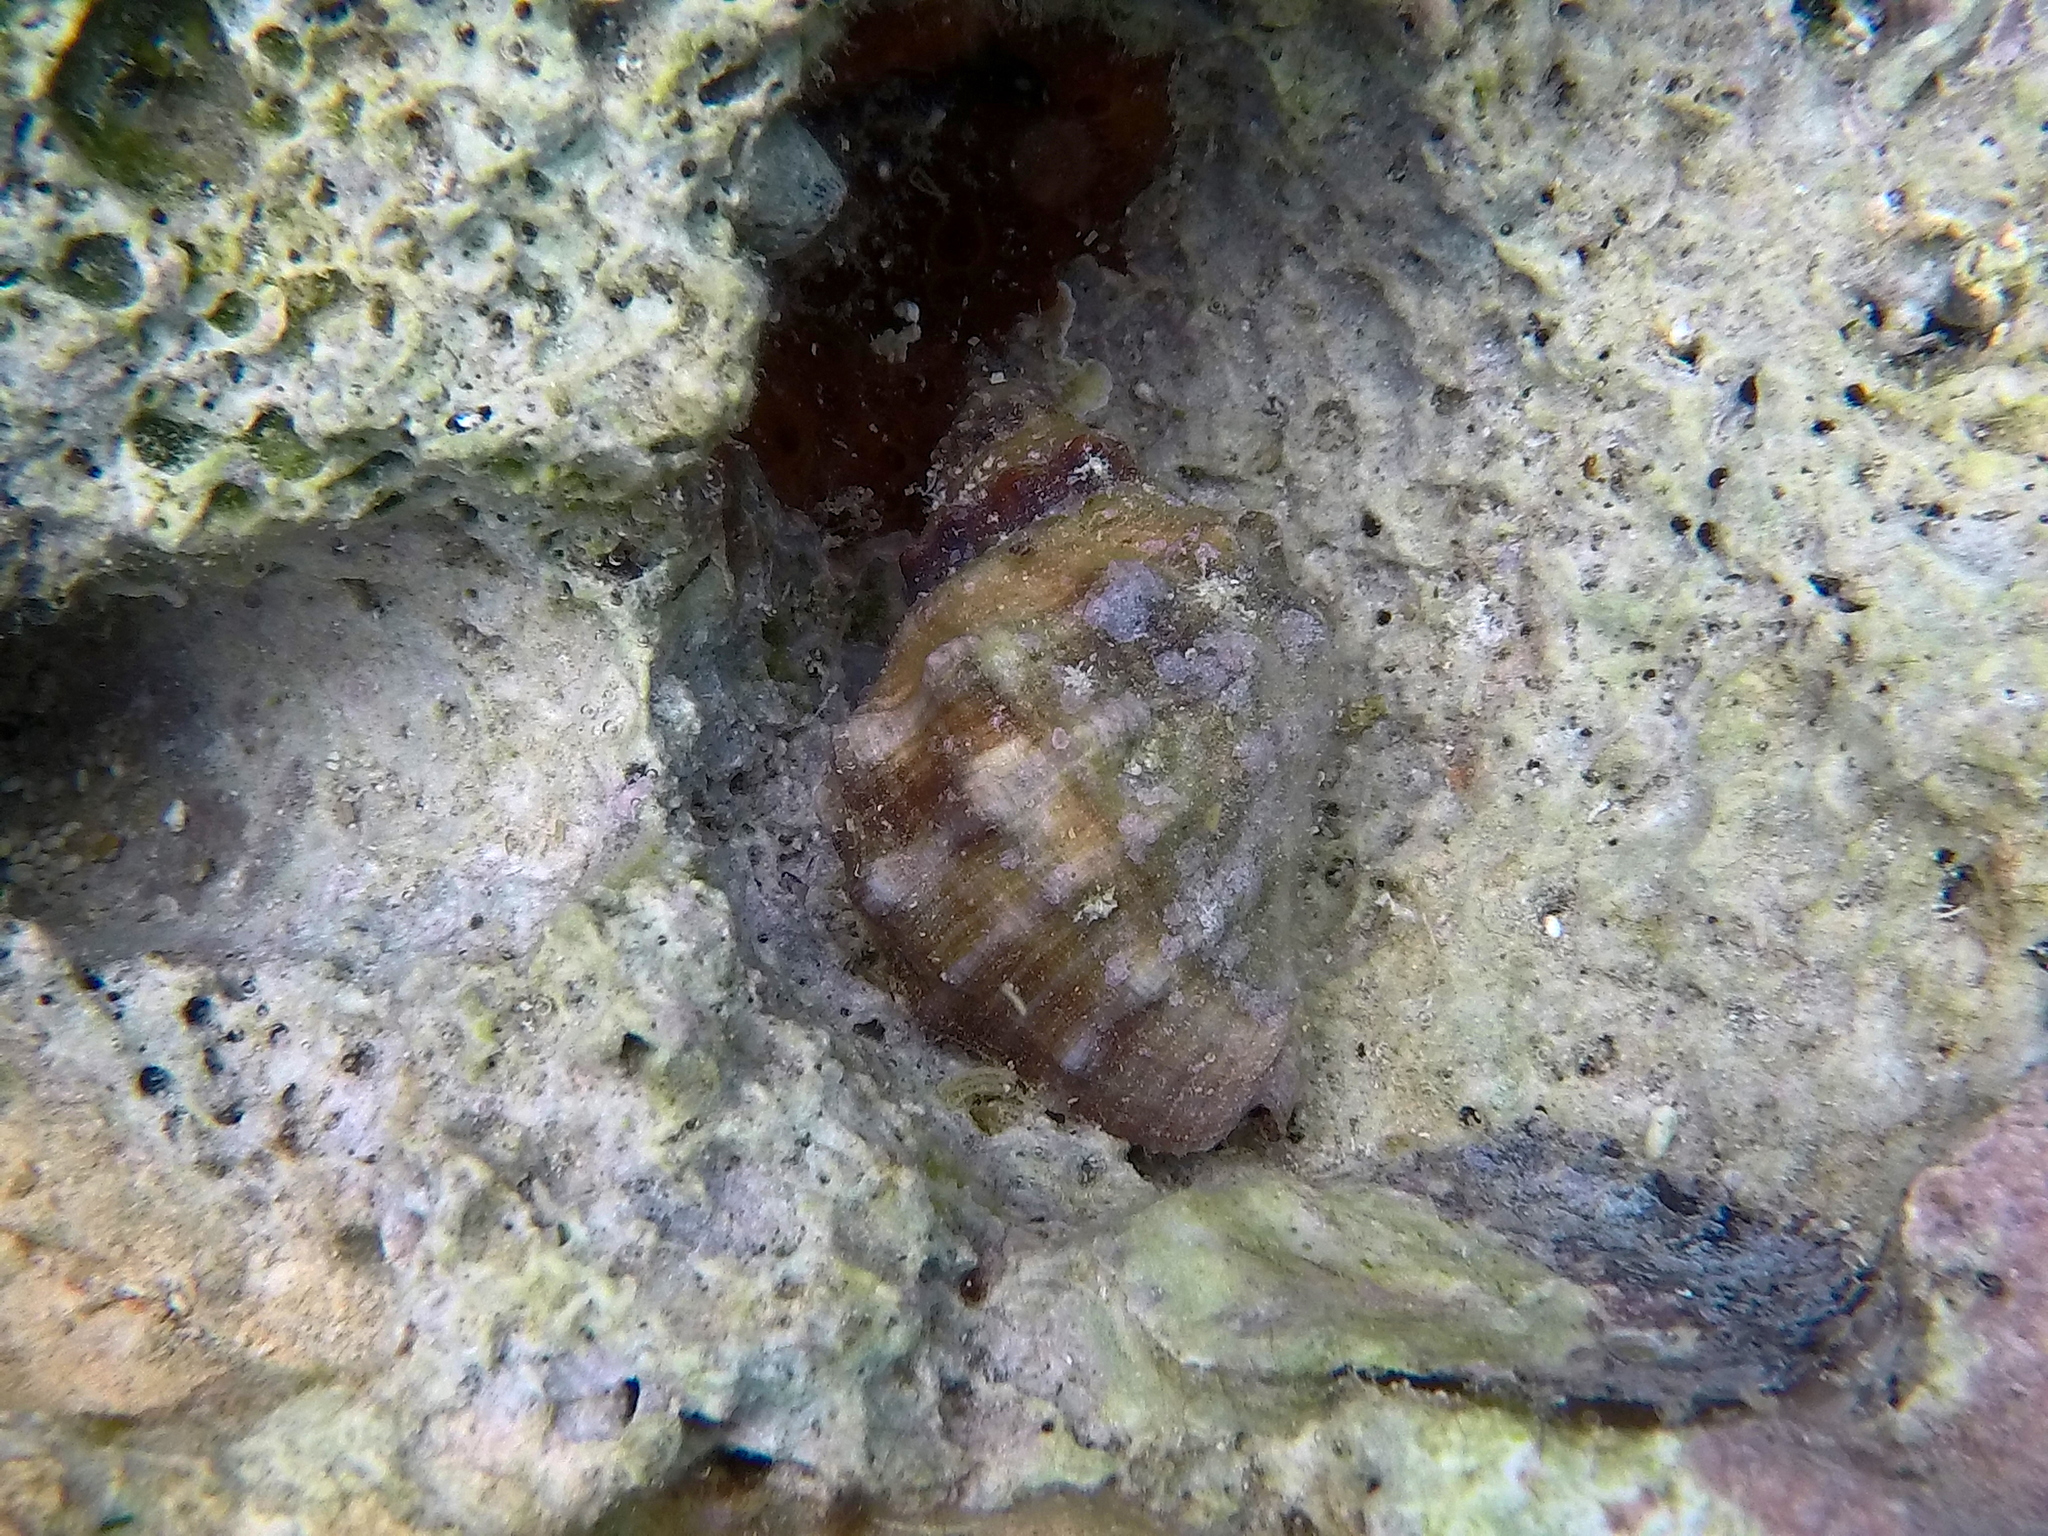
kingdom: Animalia
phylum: Mollusca
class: Gastropoda
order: Neogastropoda
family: Muricidae
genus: Stramonita
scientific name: Stramonita haemastoma
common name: Florida dog winkle
